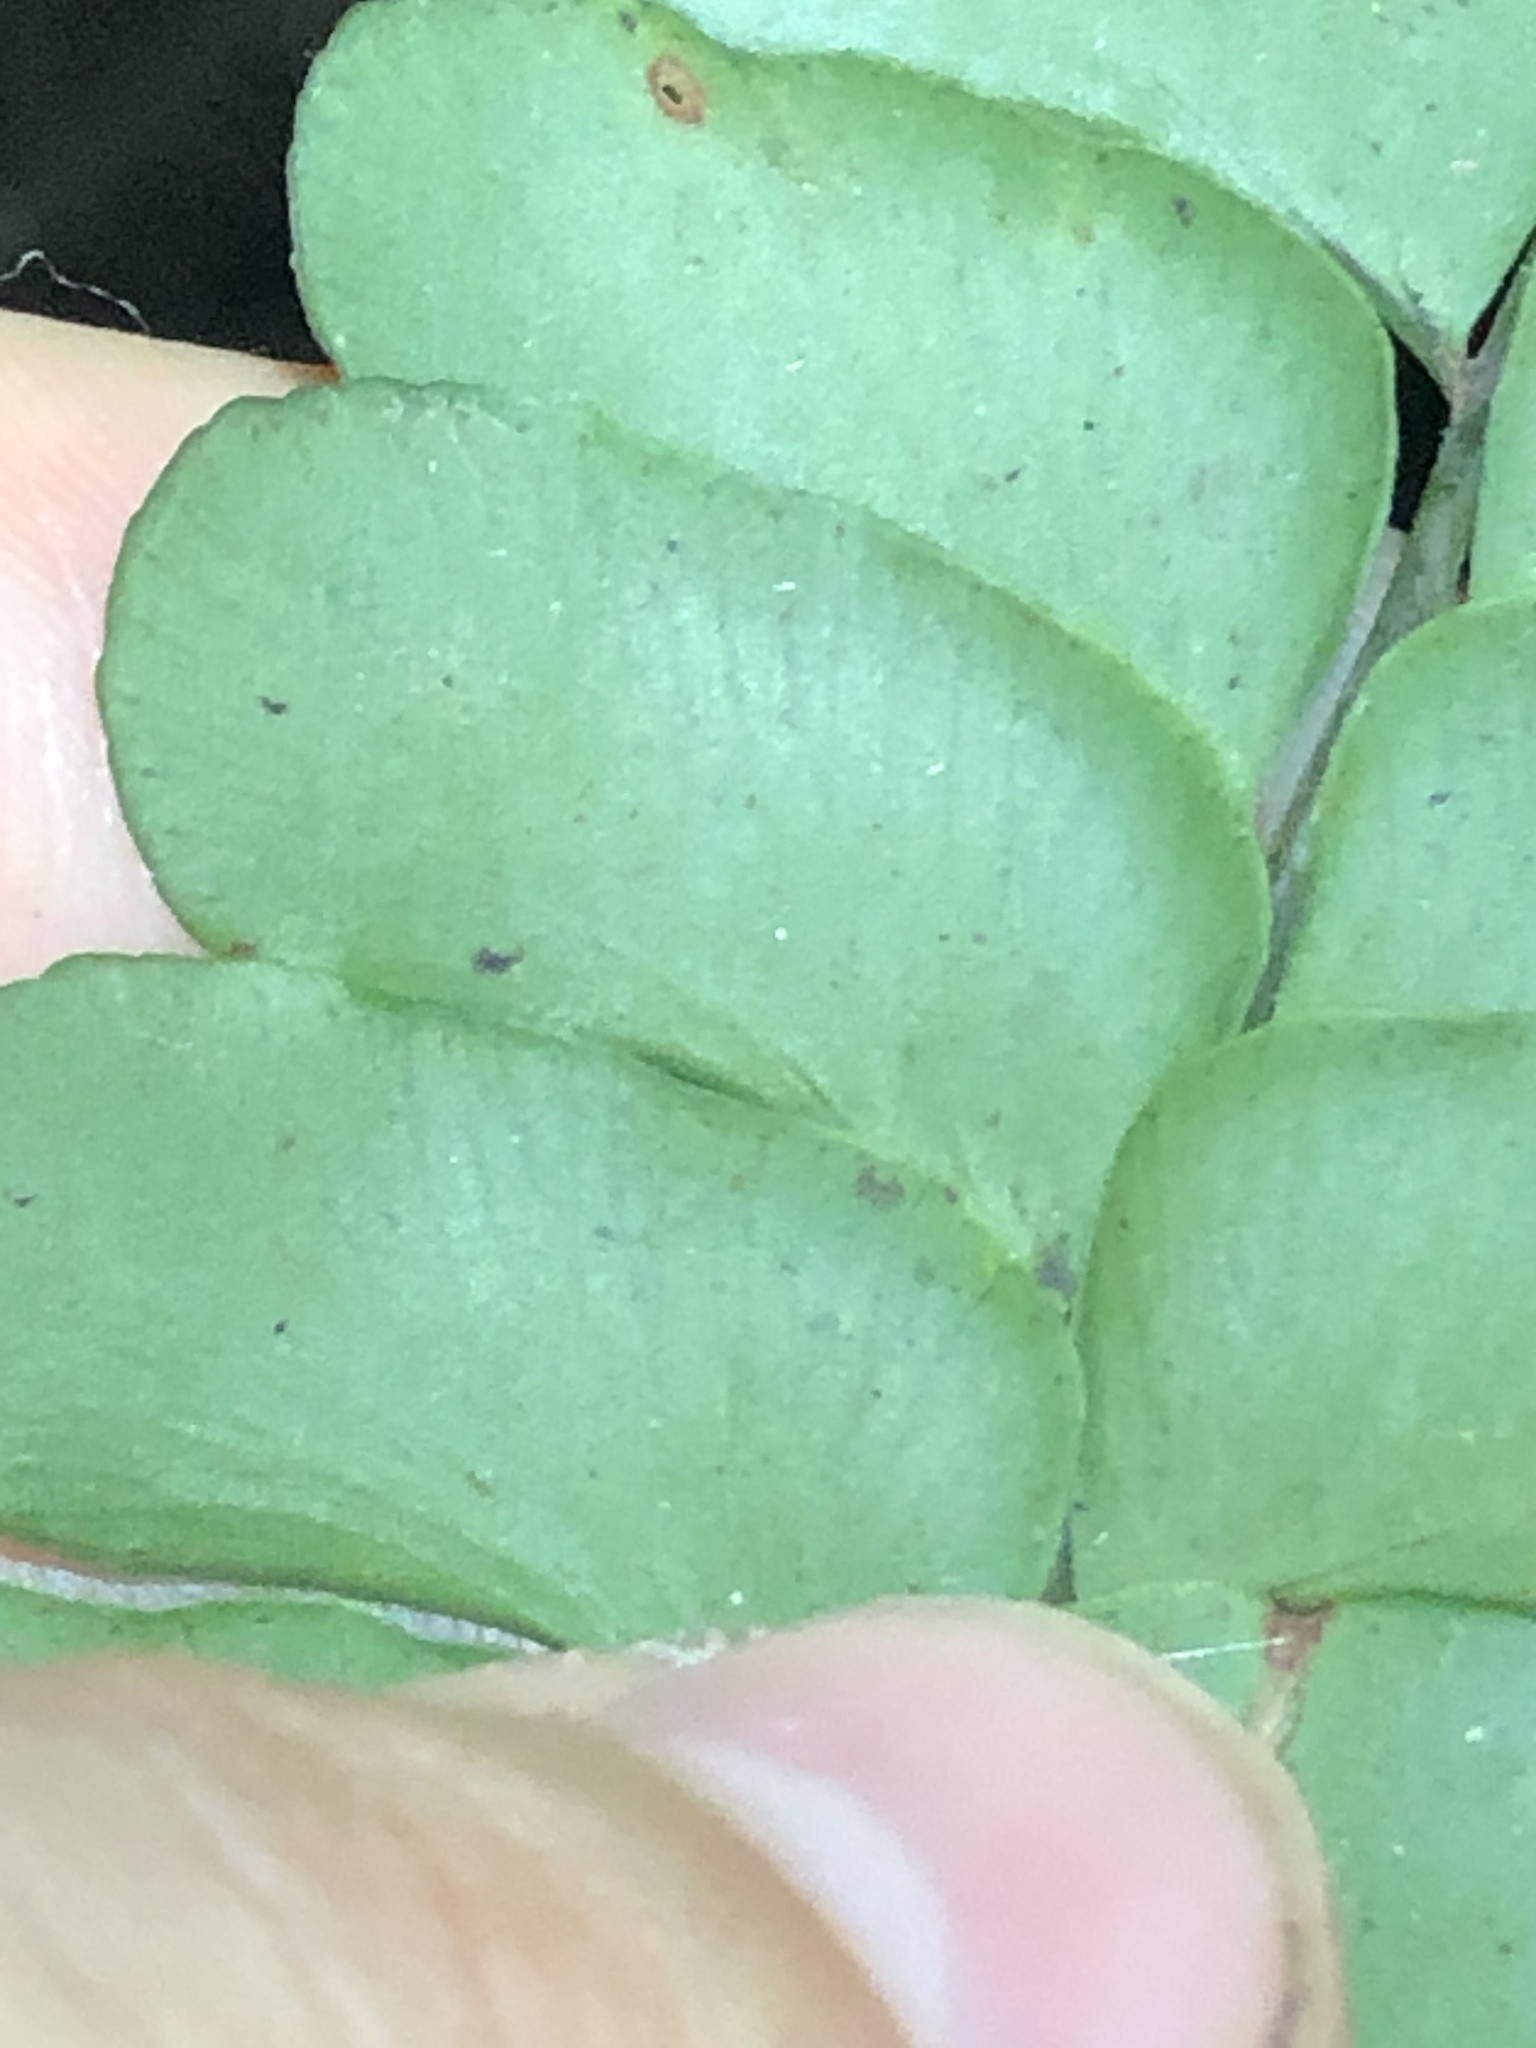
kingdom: Plantae
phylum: Tracheophyta
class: Polypodiopsida
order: Polypodiales
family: Didymochlaenaceae
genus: Didymochlaena
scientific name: Didymochlaena truncatula
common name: Mahogany fern
